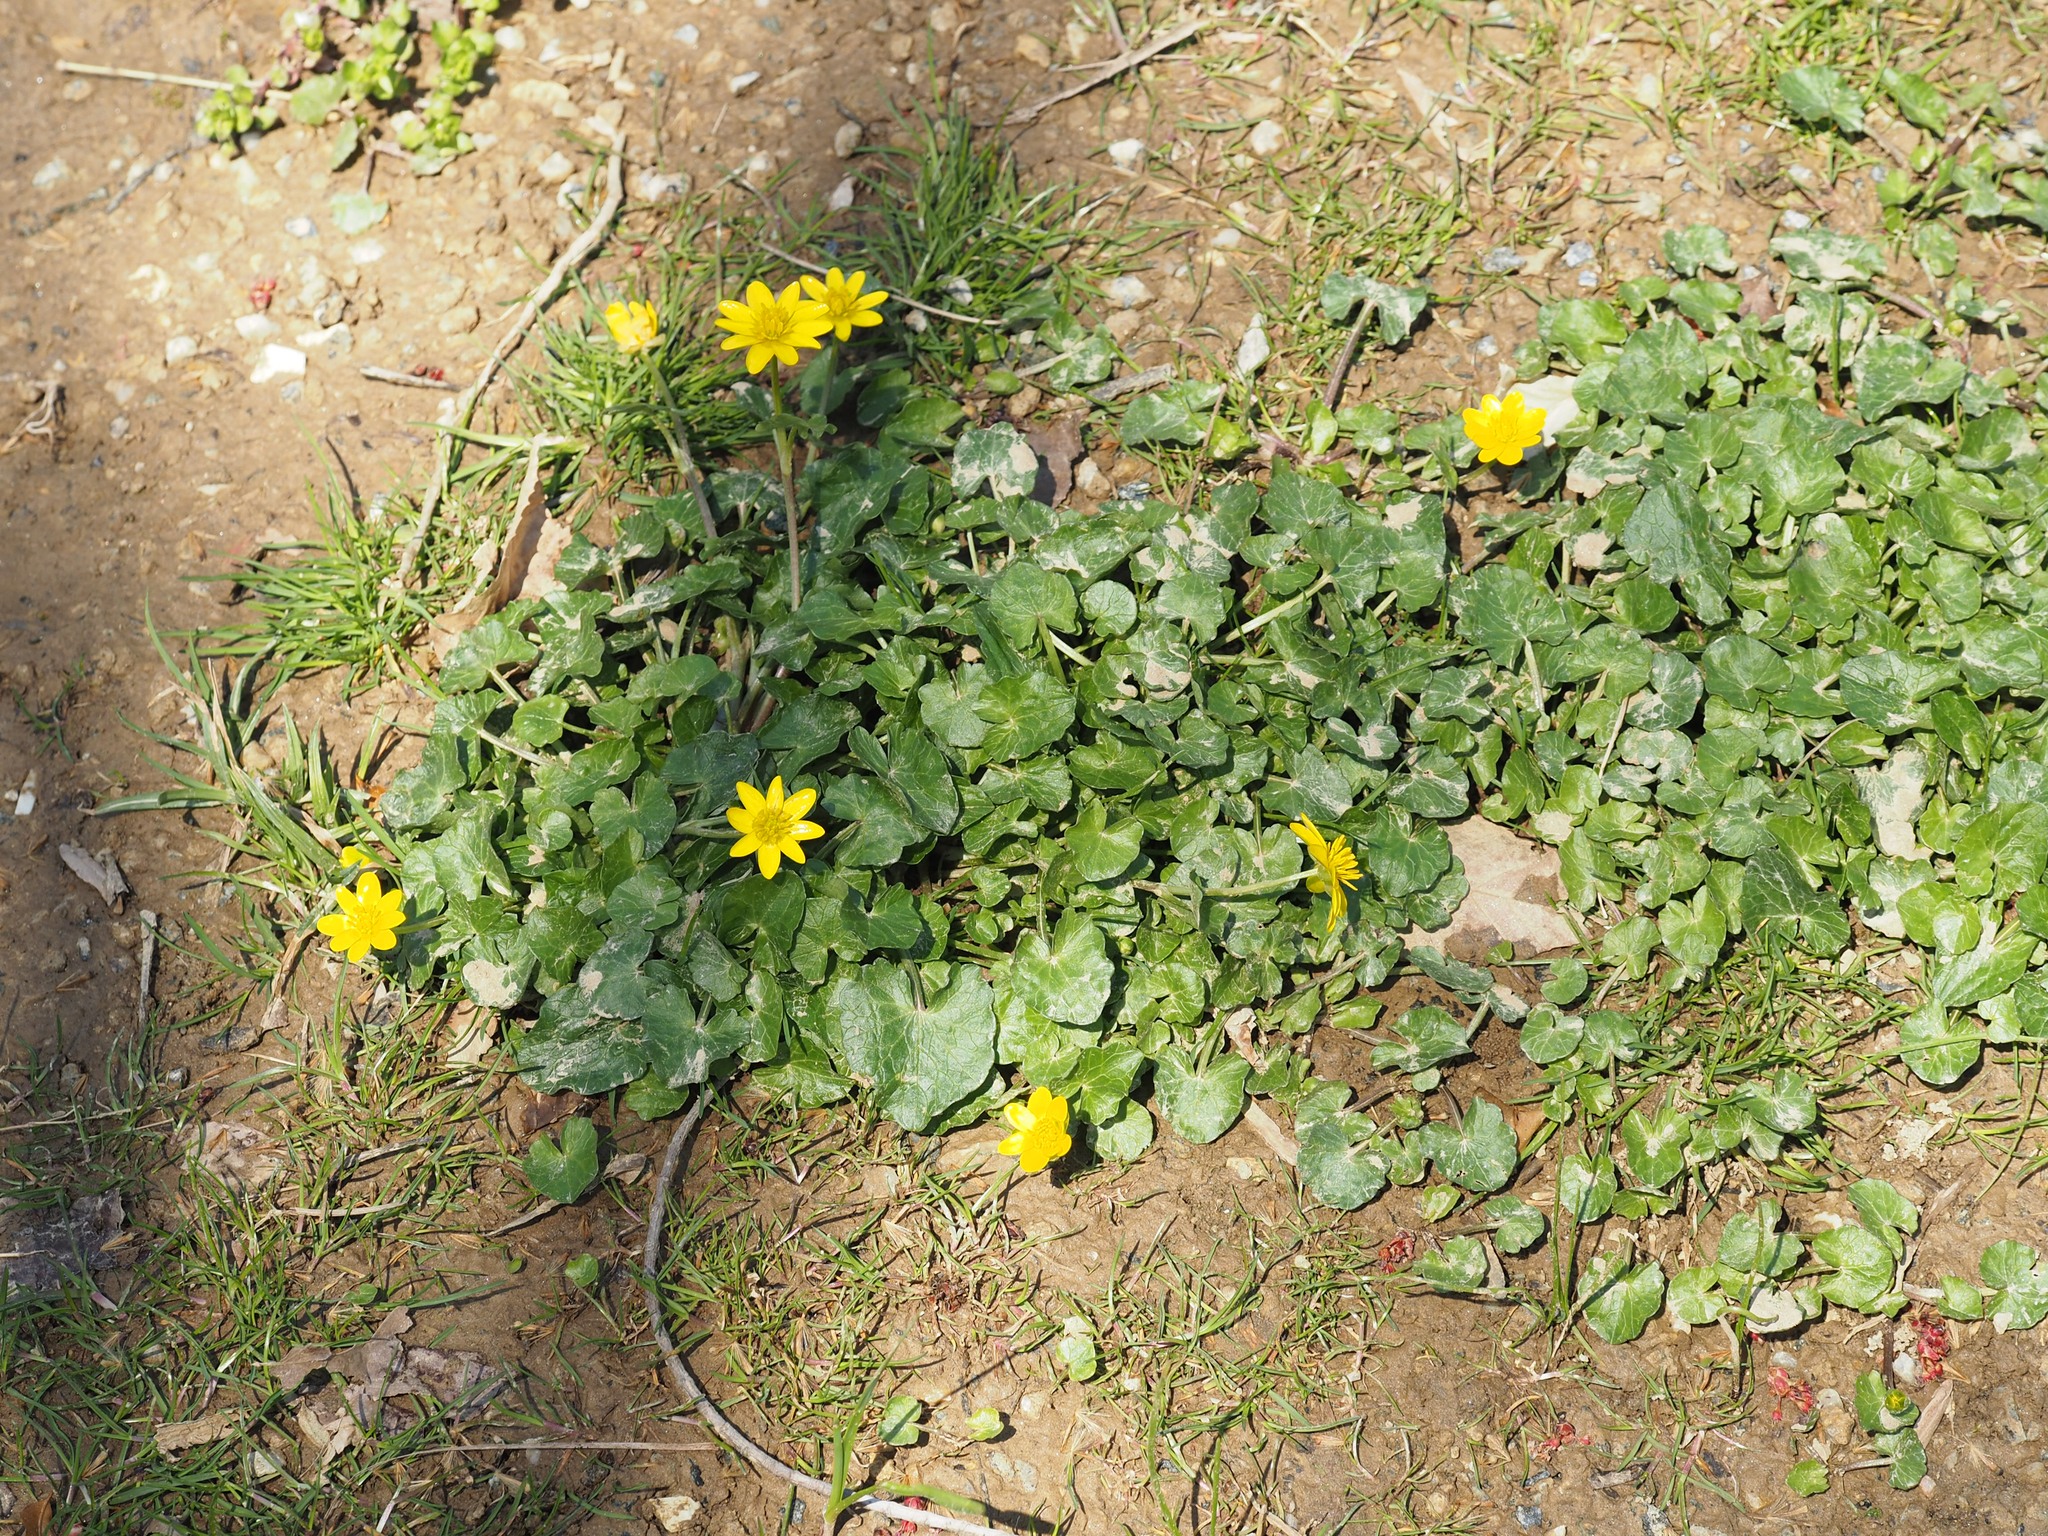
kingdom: Plantae
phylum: Tracheophyta
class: Magnoliopsida
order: Ranunculales
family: Ranunculaceae
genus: Ficaria
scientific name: Ficaria verna
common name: Lesser celandine
